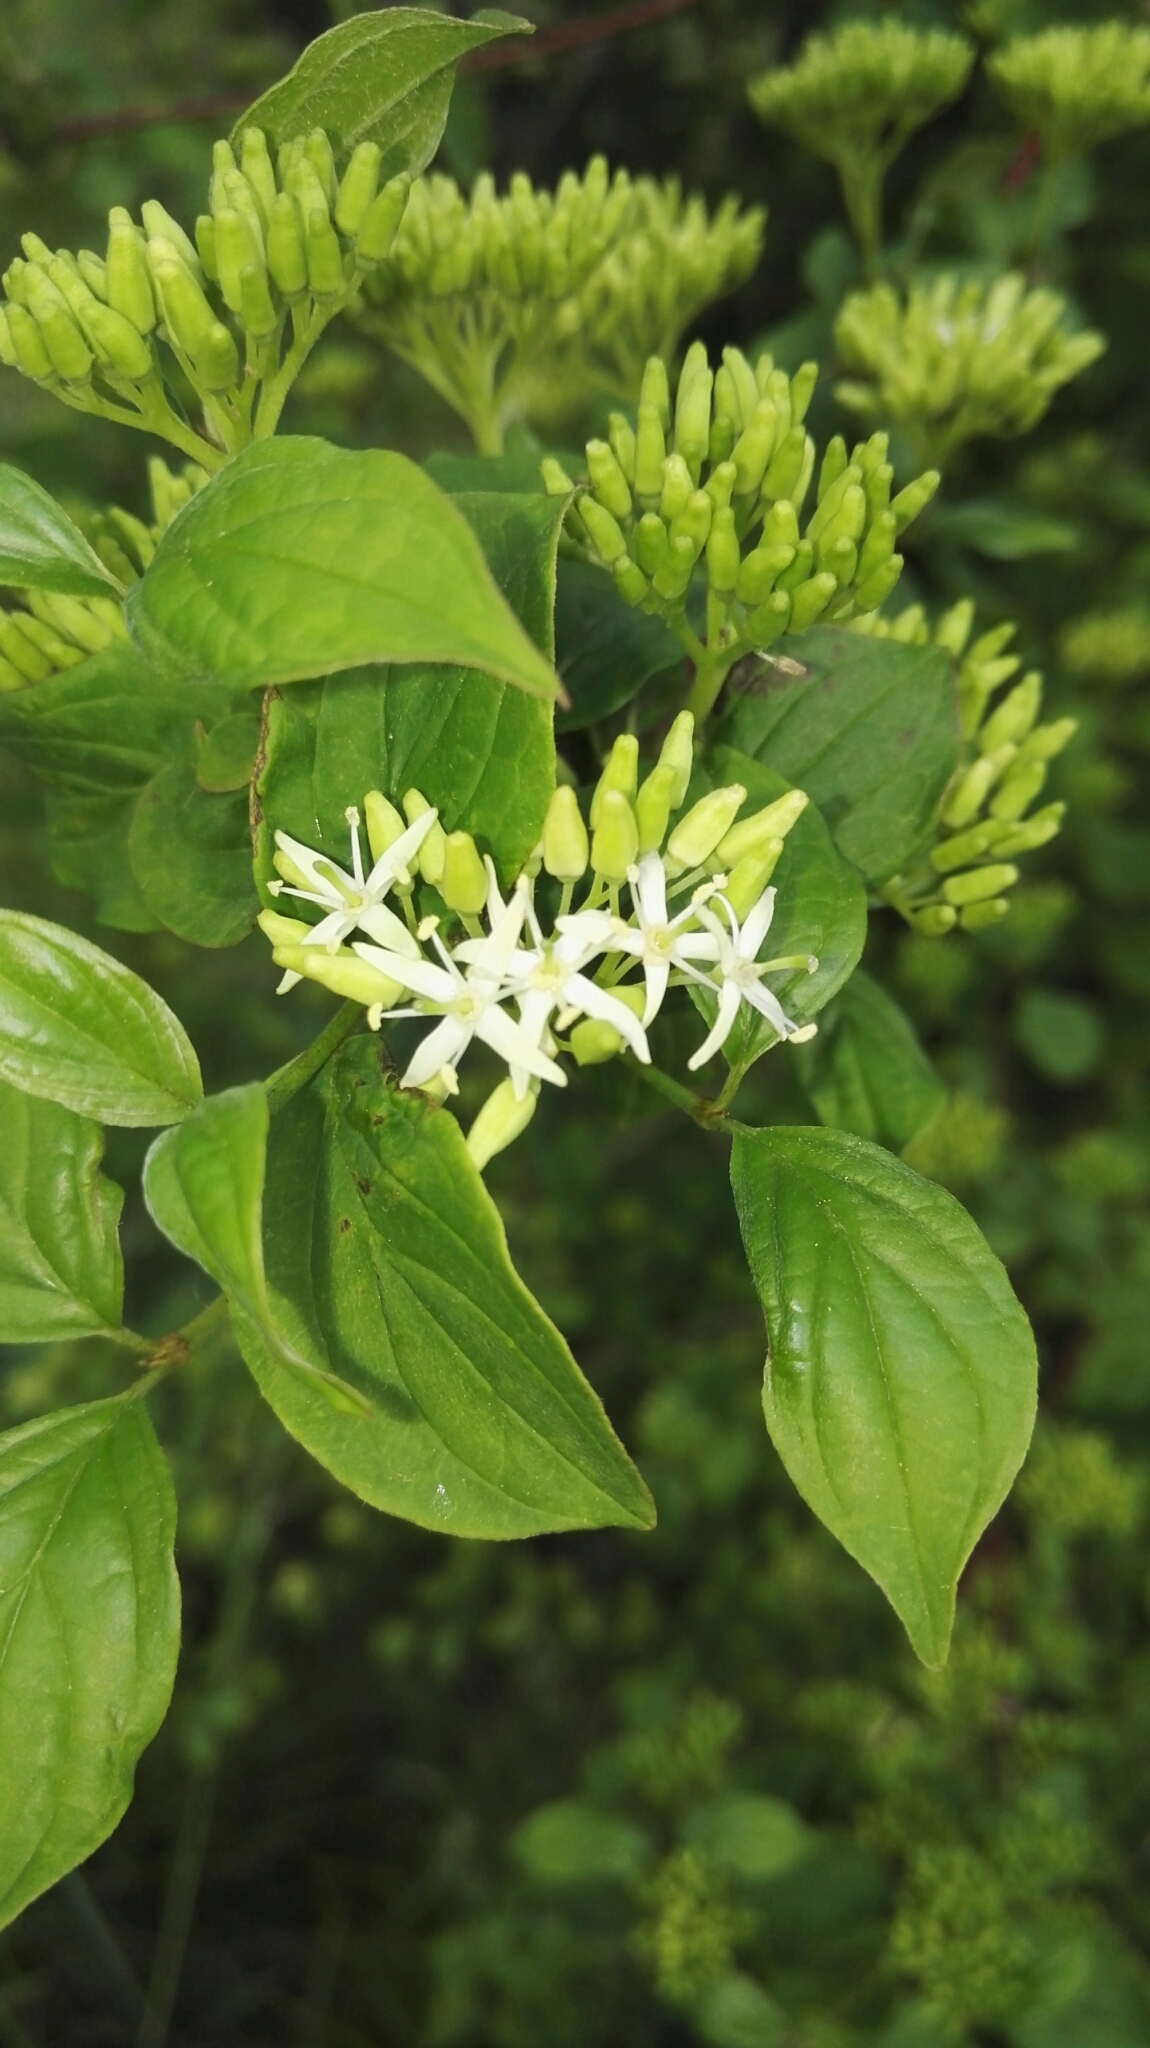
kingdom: Plantae
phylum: Tracheophyta
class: Magnoliopsida
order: Cornales
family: Cornaceae
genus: Cornus
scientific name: Cornus sanguinea
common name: Dogwood
